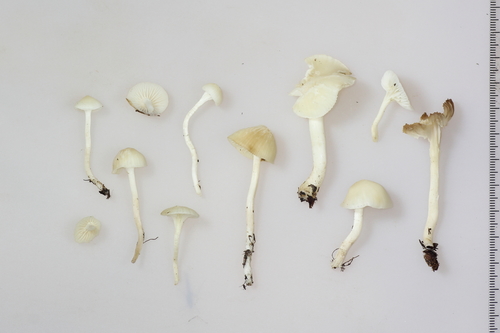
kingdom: Fungi
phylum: Basidiomycota
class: Agaricomycetes
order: Agaricales
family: Hygrophoraceae
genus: Cuphophyllus
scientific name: Cuphophyllus virgineus
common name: Snowy waxcap
